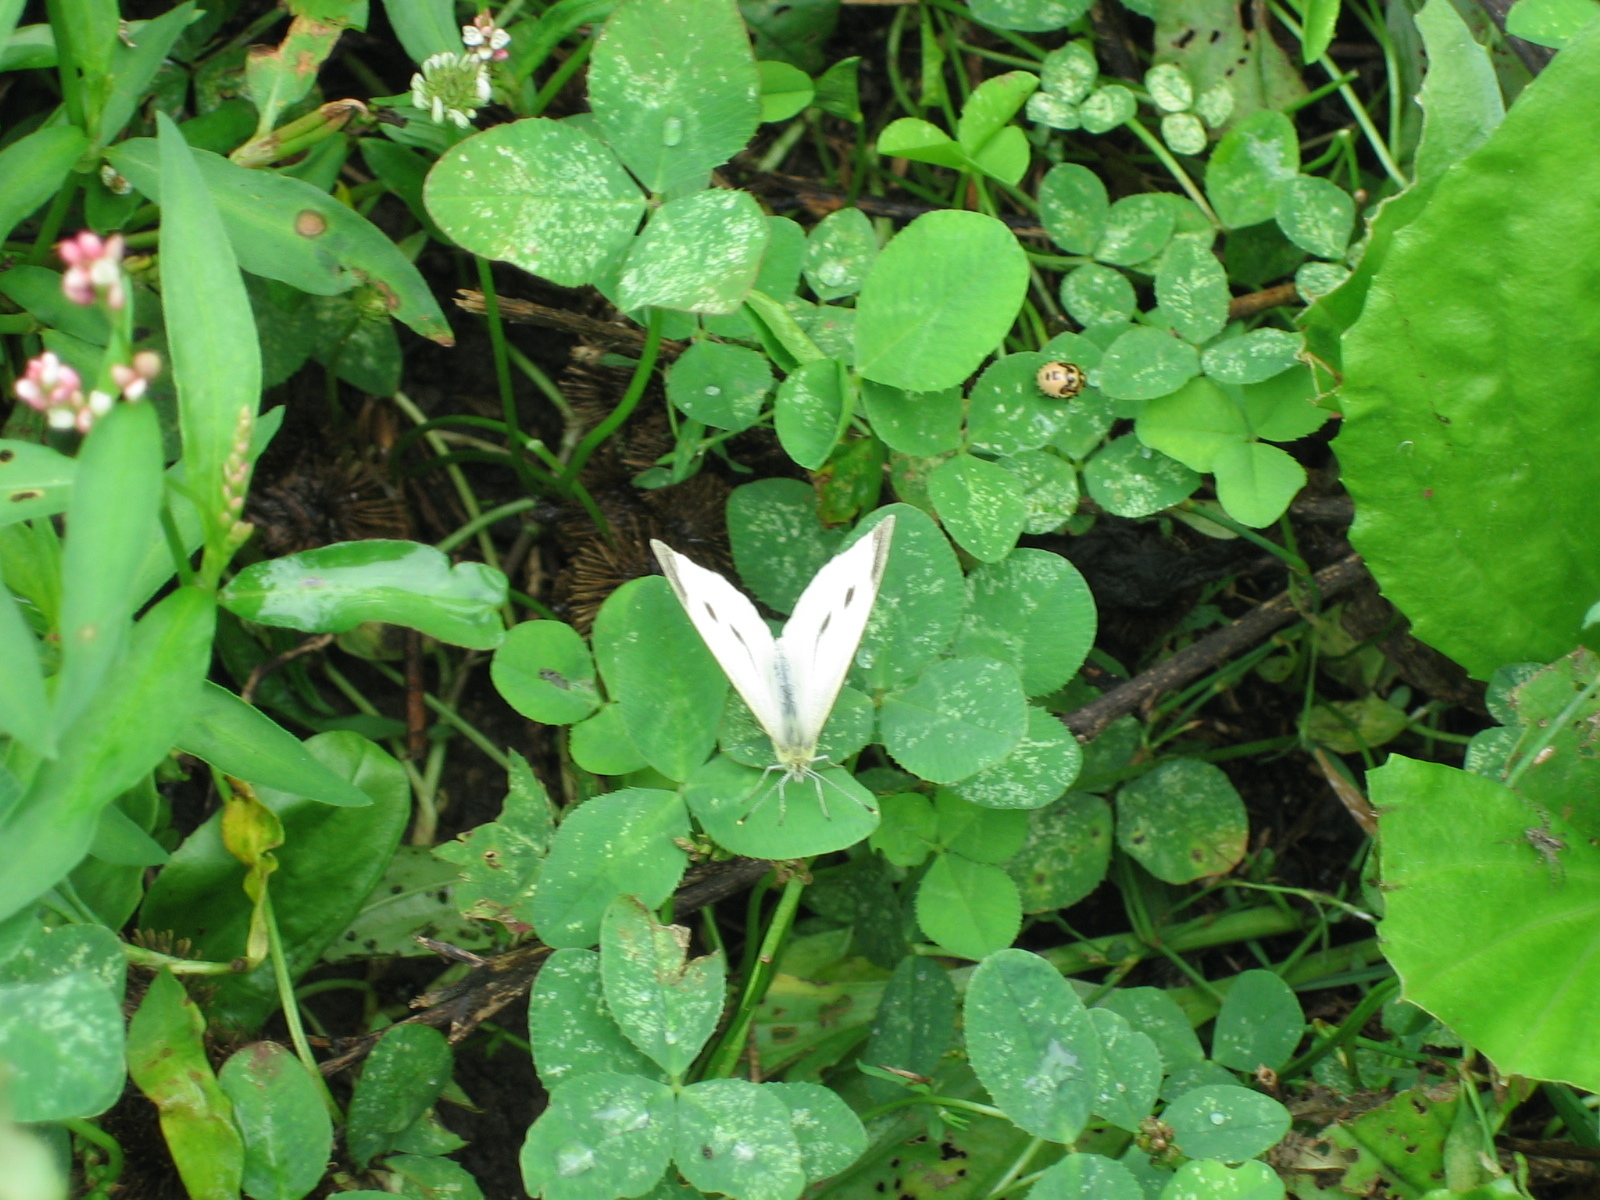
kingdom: Animalia
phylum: Arthropoda
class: Insecta
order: Lepidoptera
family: Pieridae
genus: Pieris
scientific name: Pieris rapae
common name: Small white
